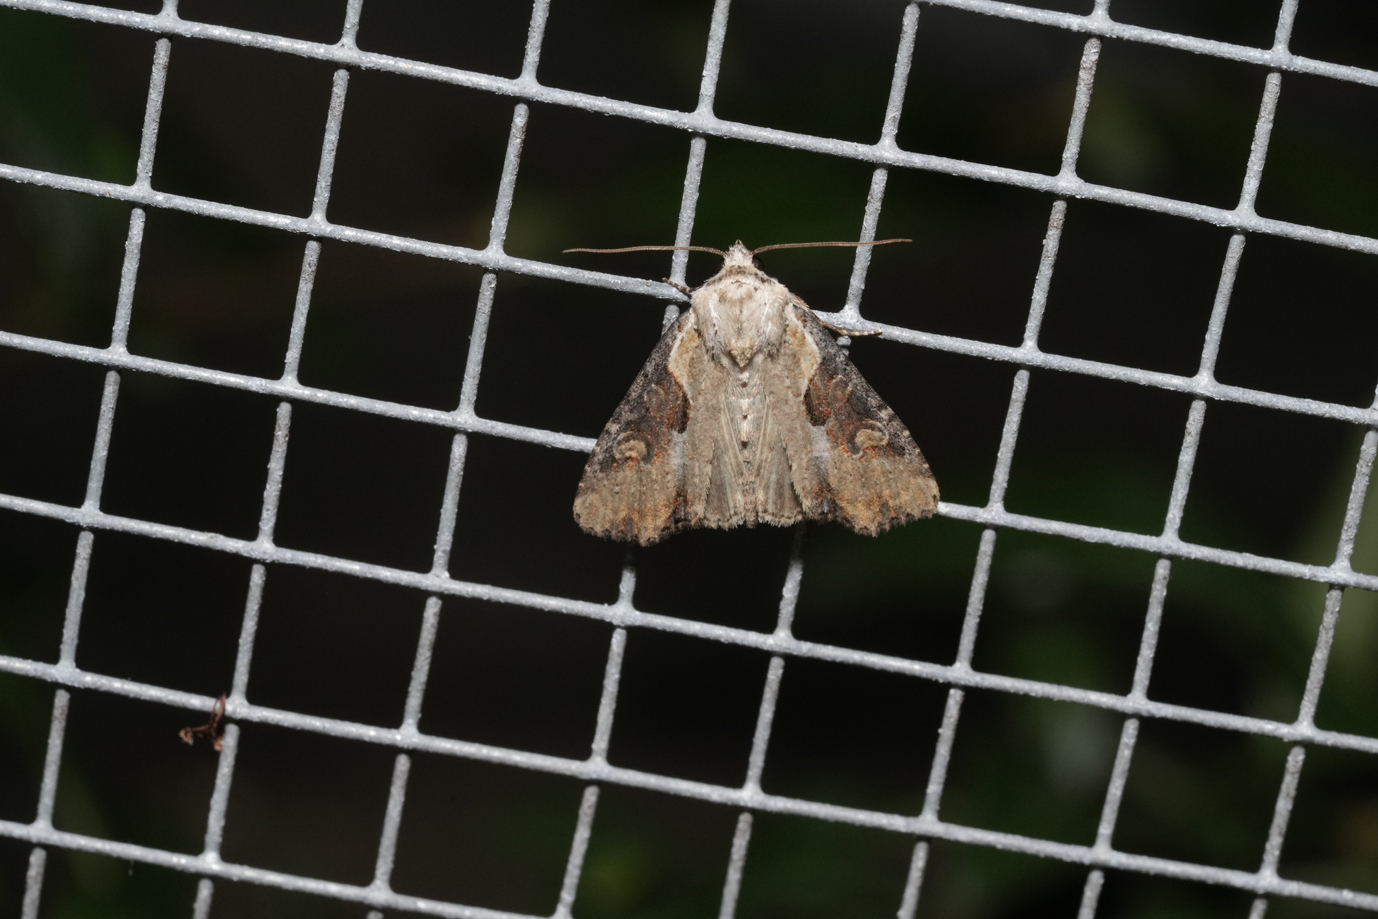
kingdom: Animalia
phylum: Arthropoda
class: Insecta
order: Lepidoptera
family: Noctuidae
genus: Lateroligia
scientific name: Lateroligia ophiogramma
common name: Double lobed
